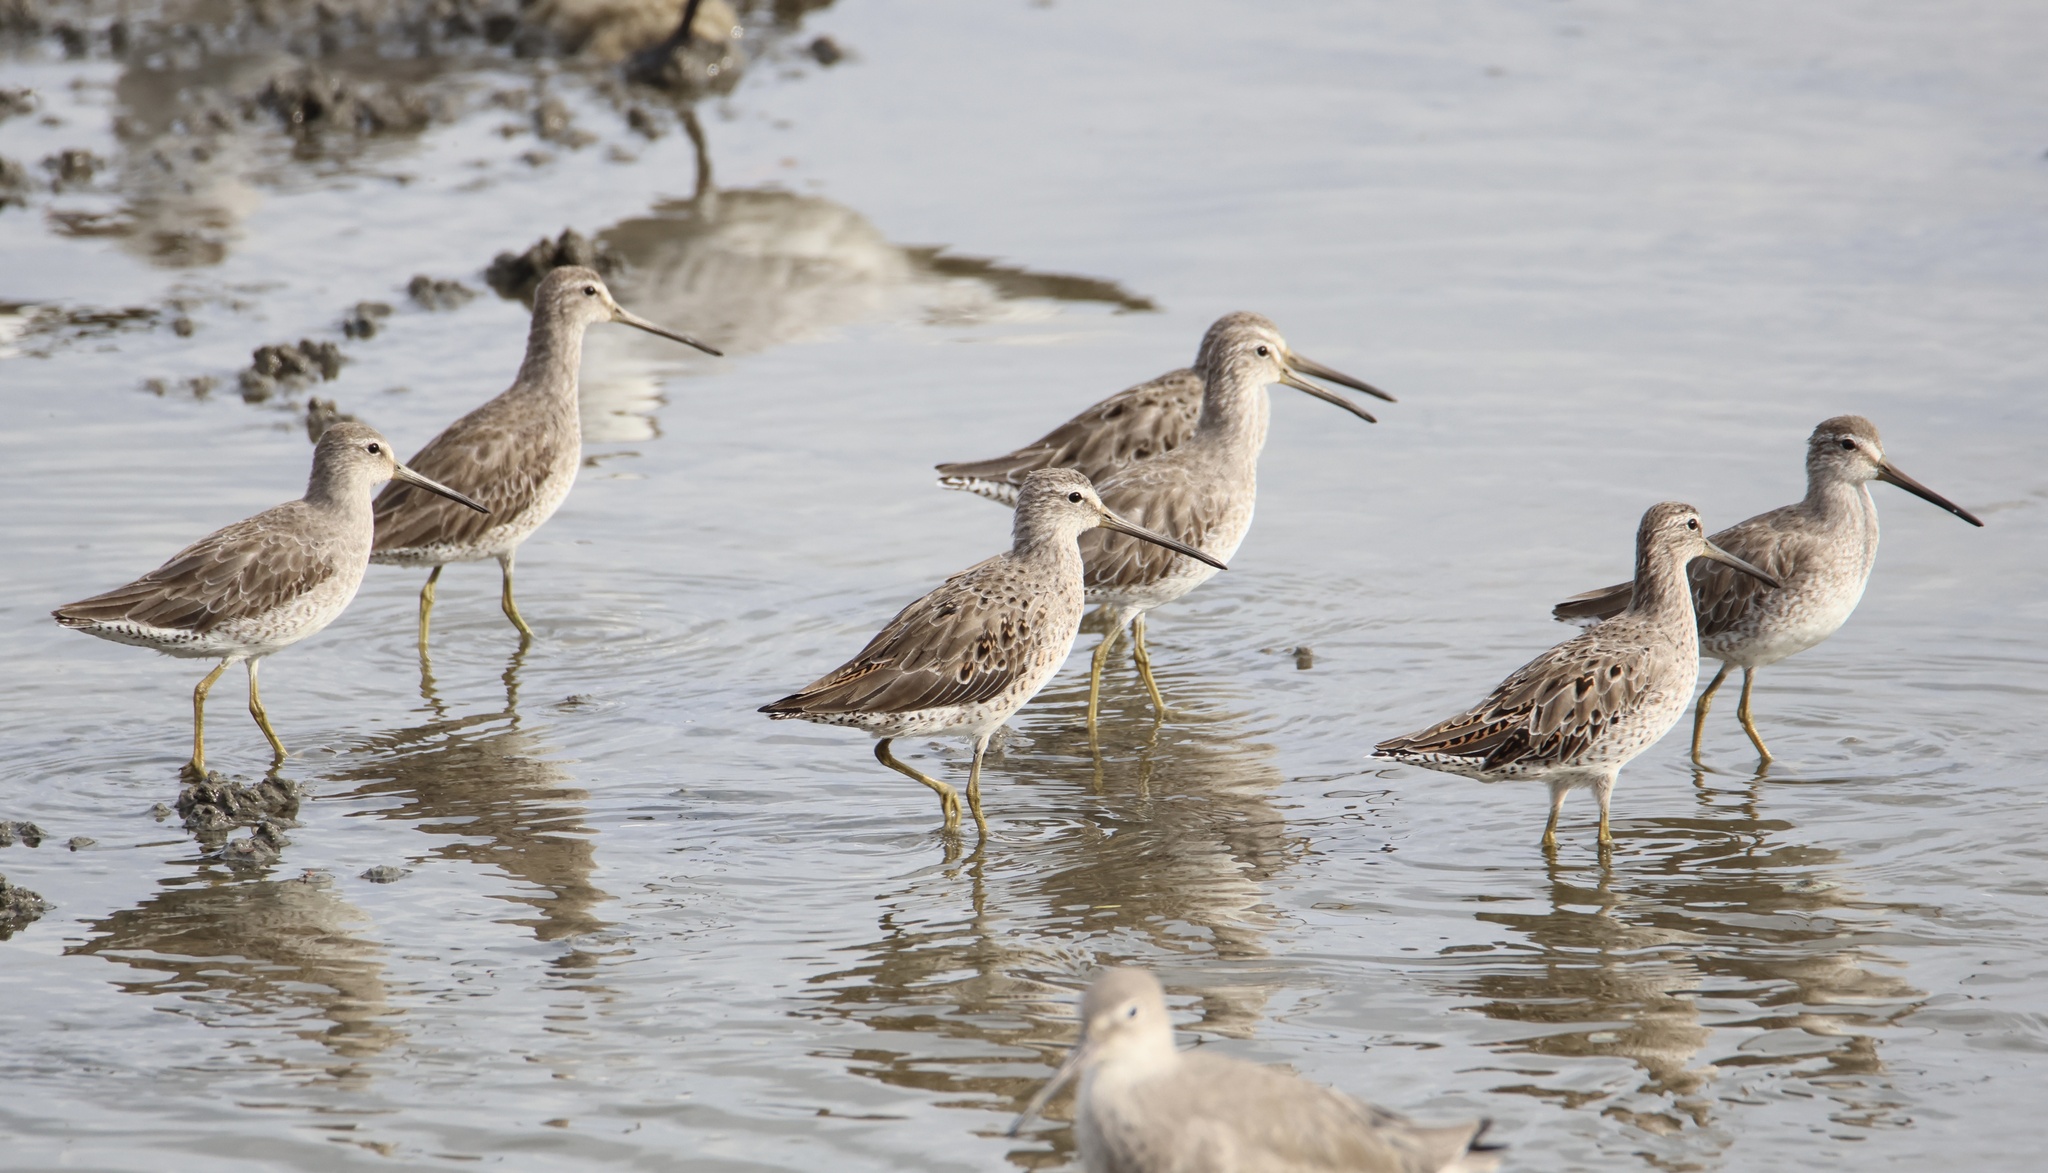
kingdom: Animalia
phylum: Chordata
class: Aves
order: Charadriiformes
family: Scolopacidae
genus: Limnodromus
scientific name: Limnodromus griseus
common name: Short-billed dowitcher
